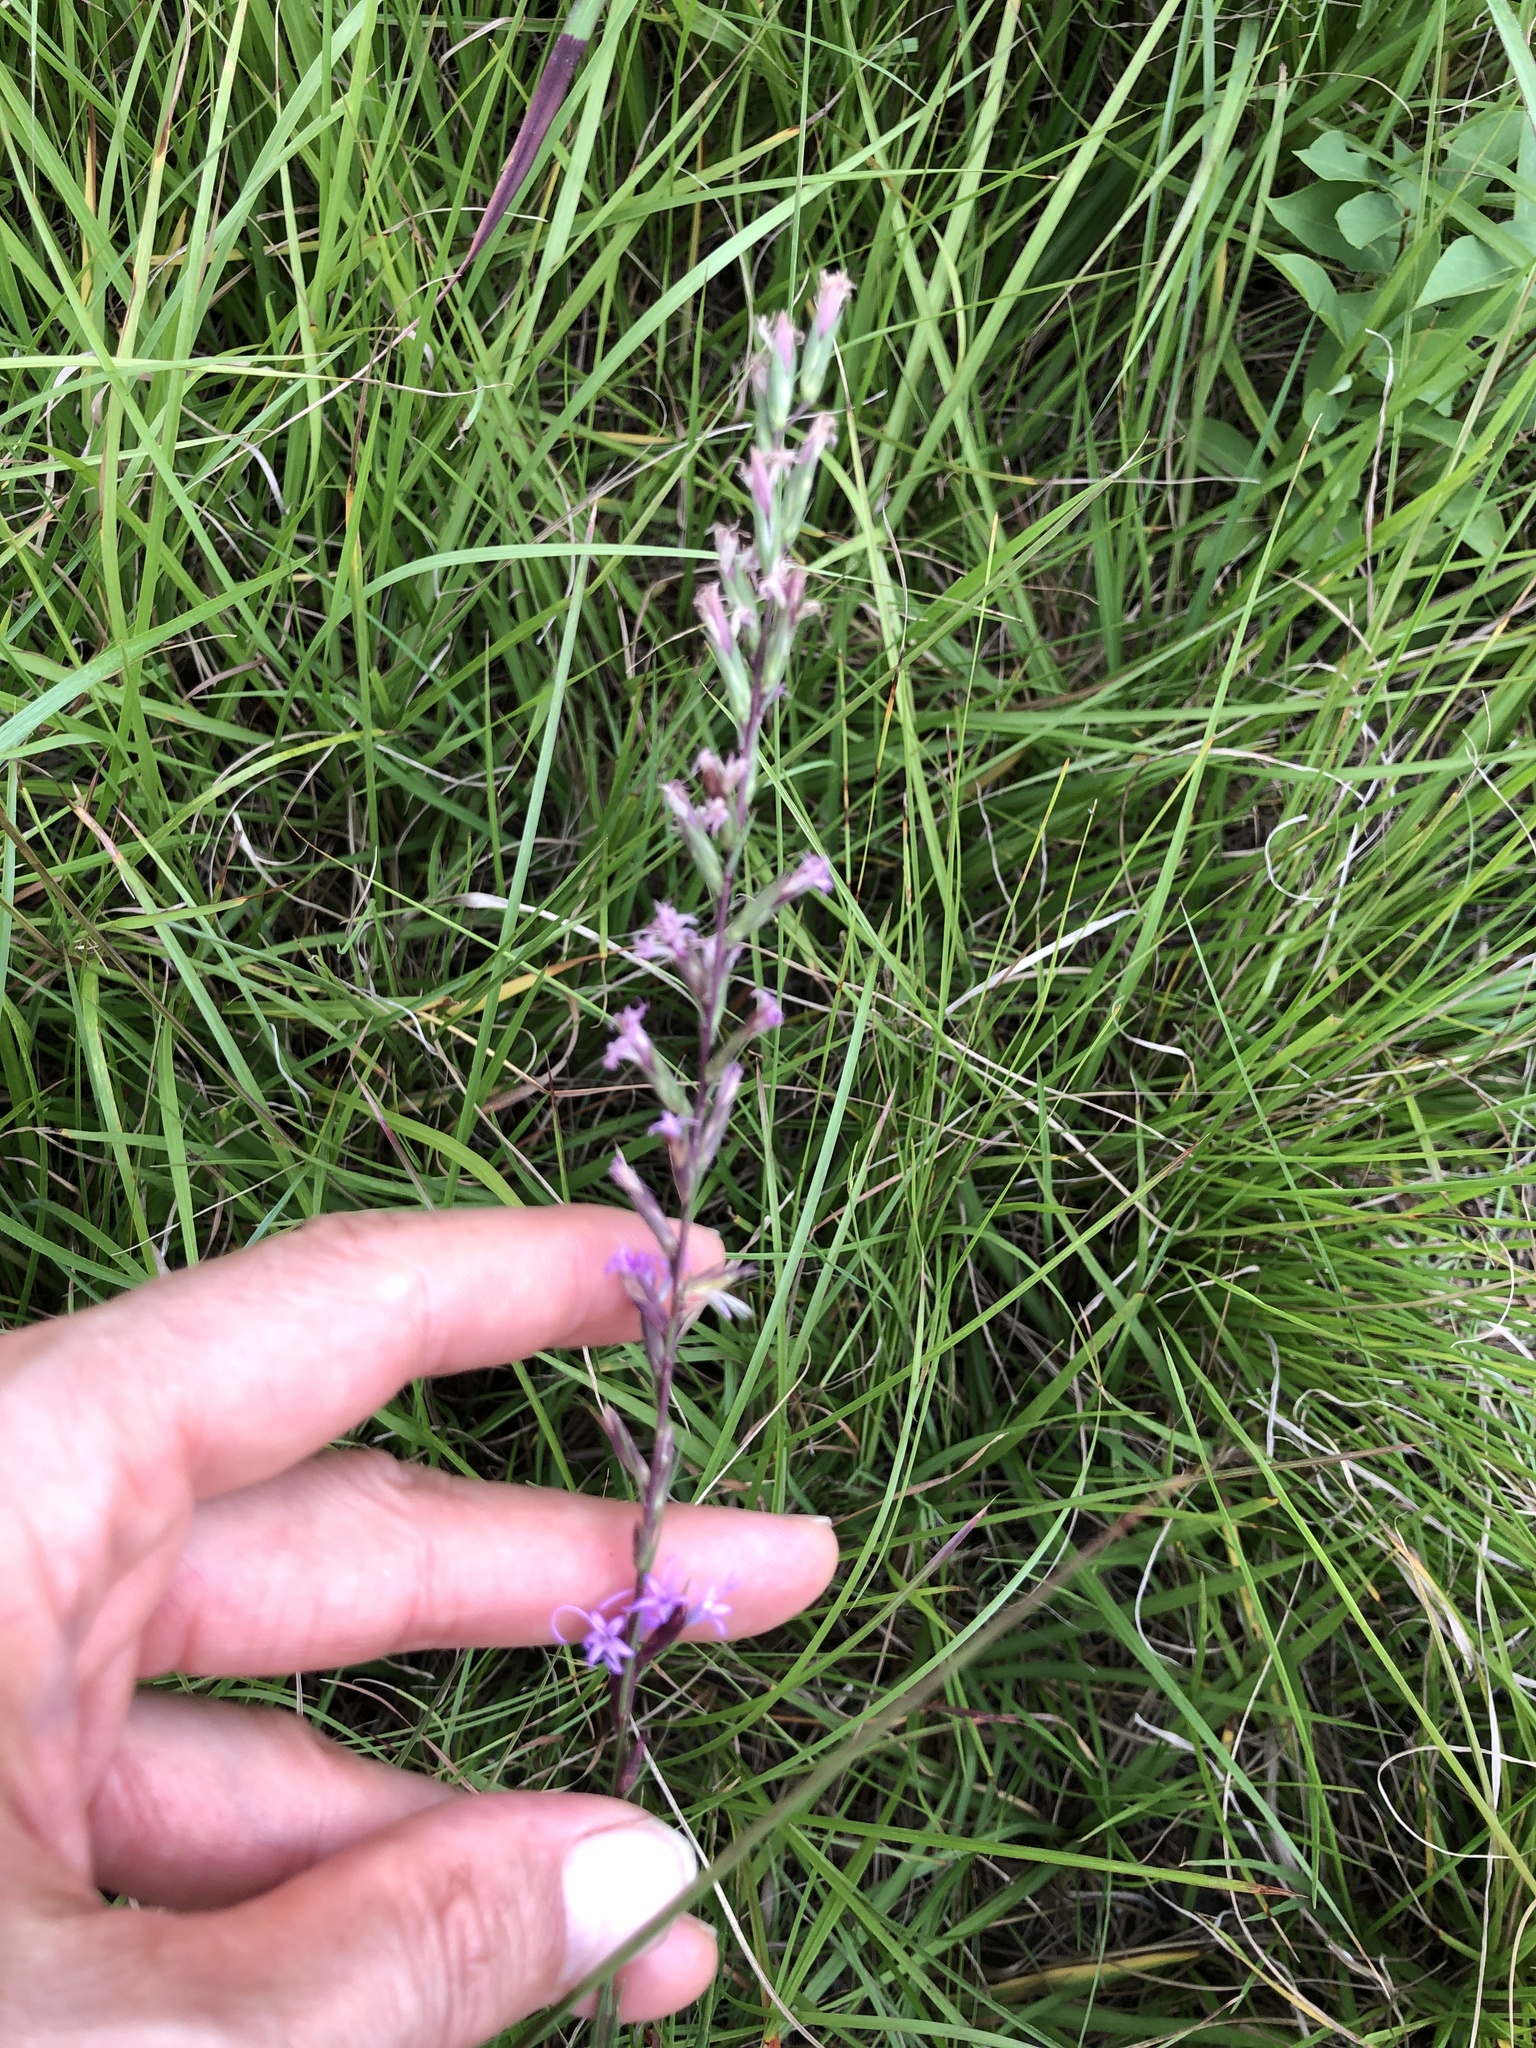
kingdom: Plantae
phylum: Tracheophyta
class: Magnoliopsida
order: Asterales
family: Asteraceae
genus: Liatris
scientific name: Liatris acidota
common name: Gulf coast gayfeather
